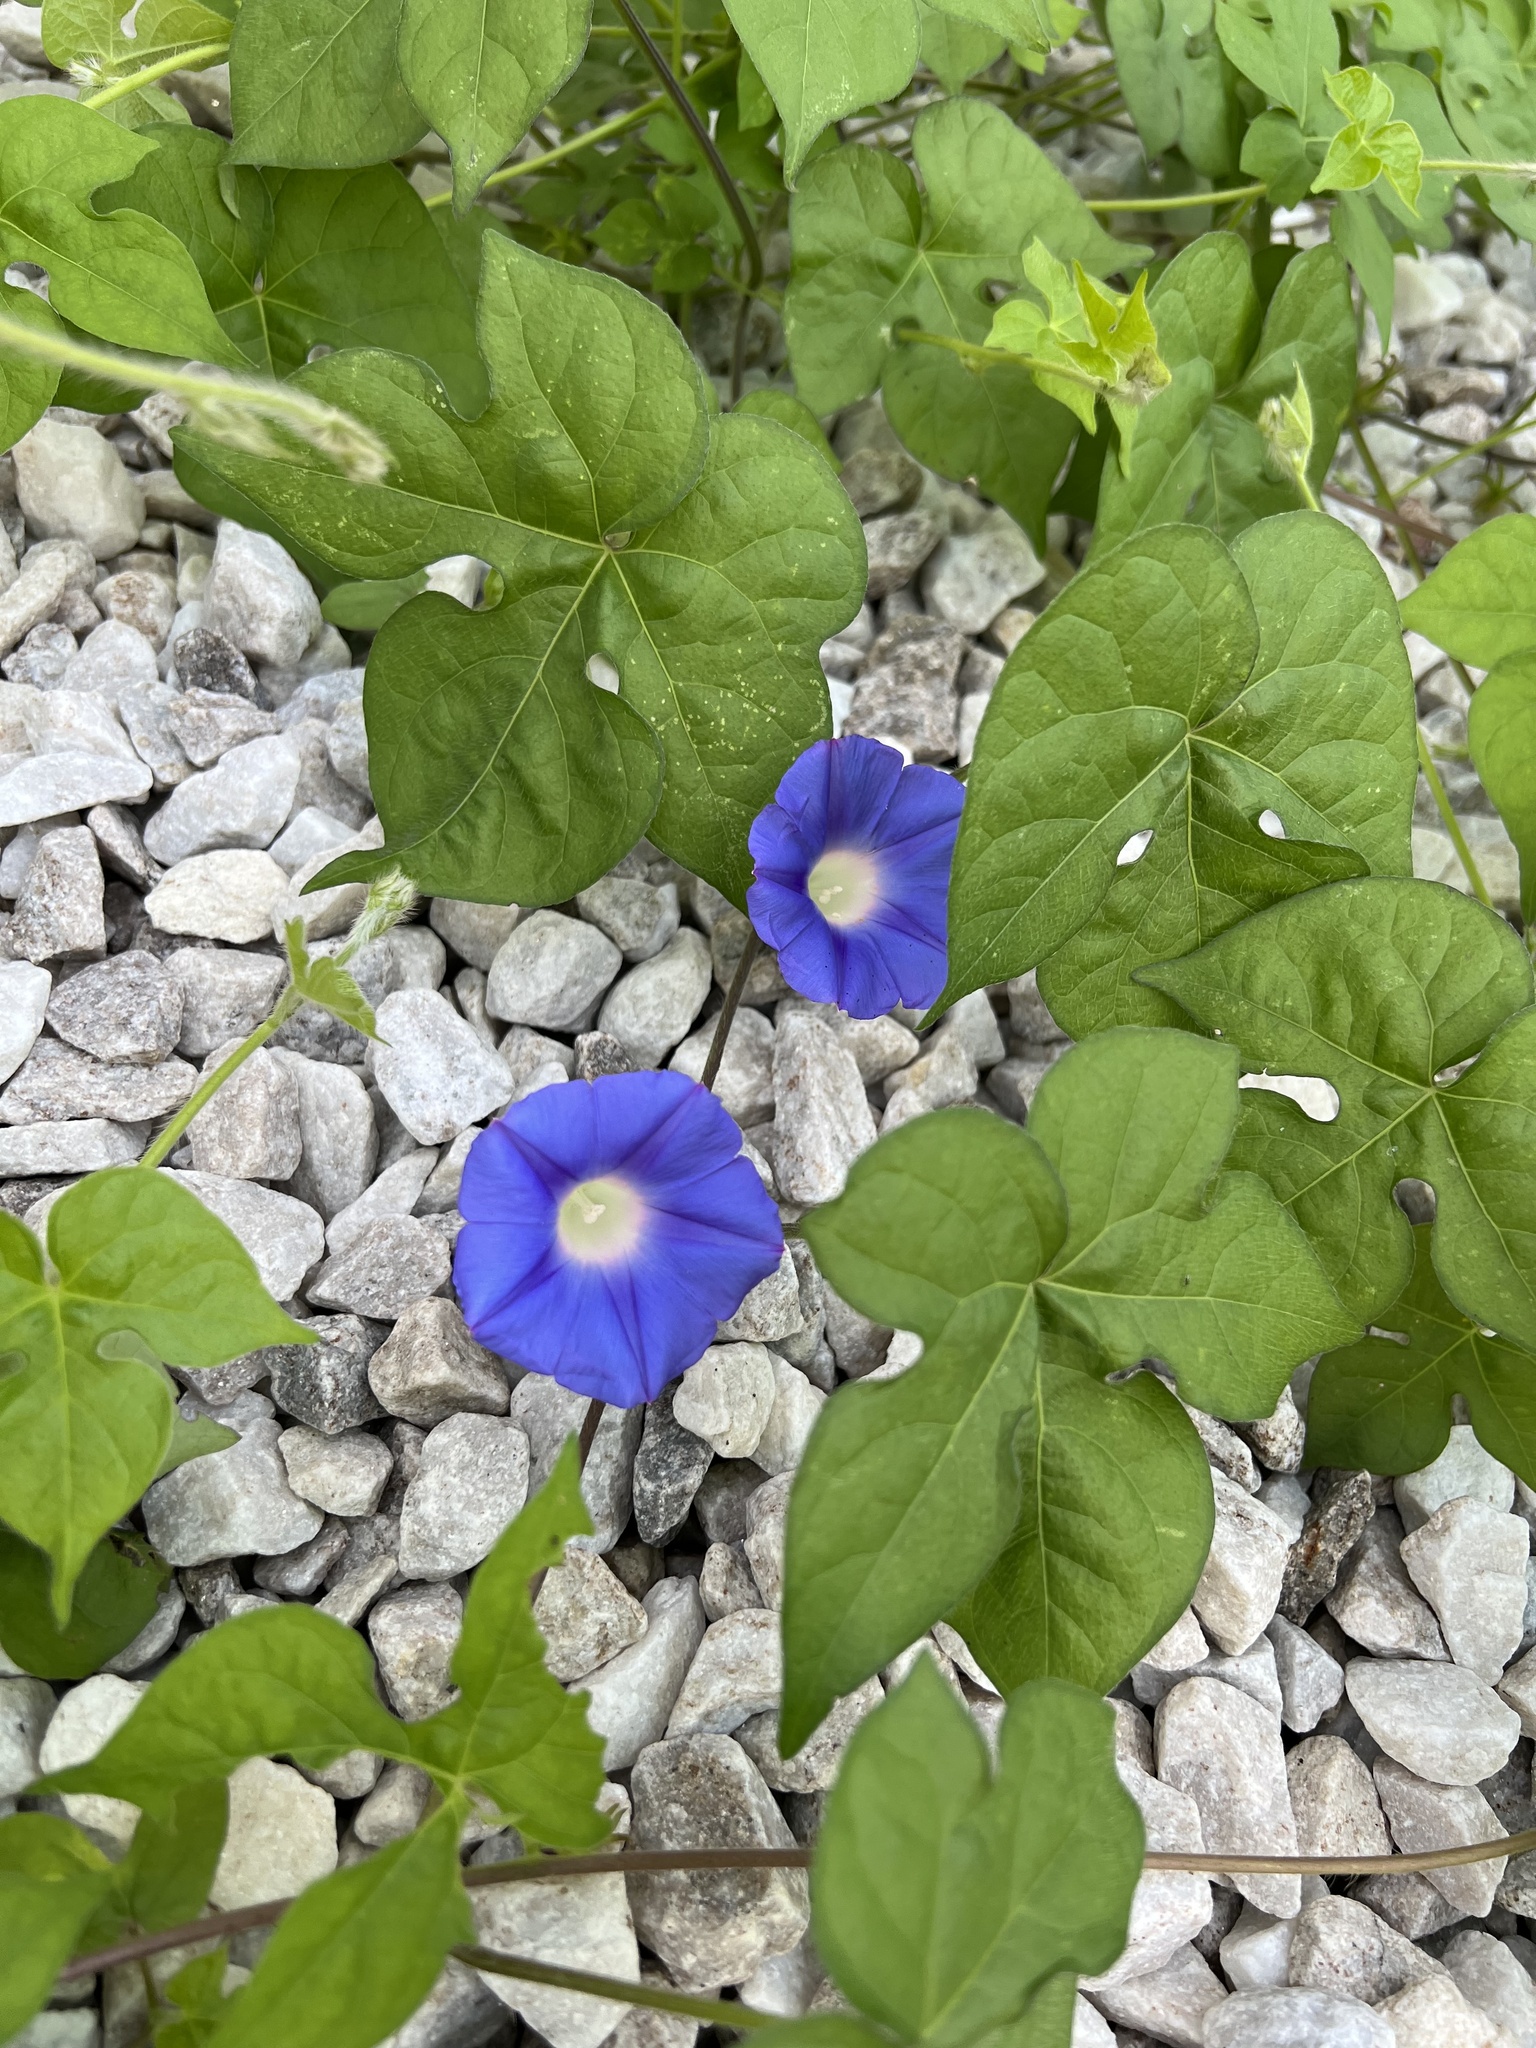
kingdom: Plantae
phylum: Tracheophyta
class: Magnoliopsida
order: Solanales
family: Convolvulaceae
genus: Ipomoea
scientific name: Ipomoea hederacea
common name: Ivy-leaved morning-glory
